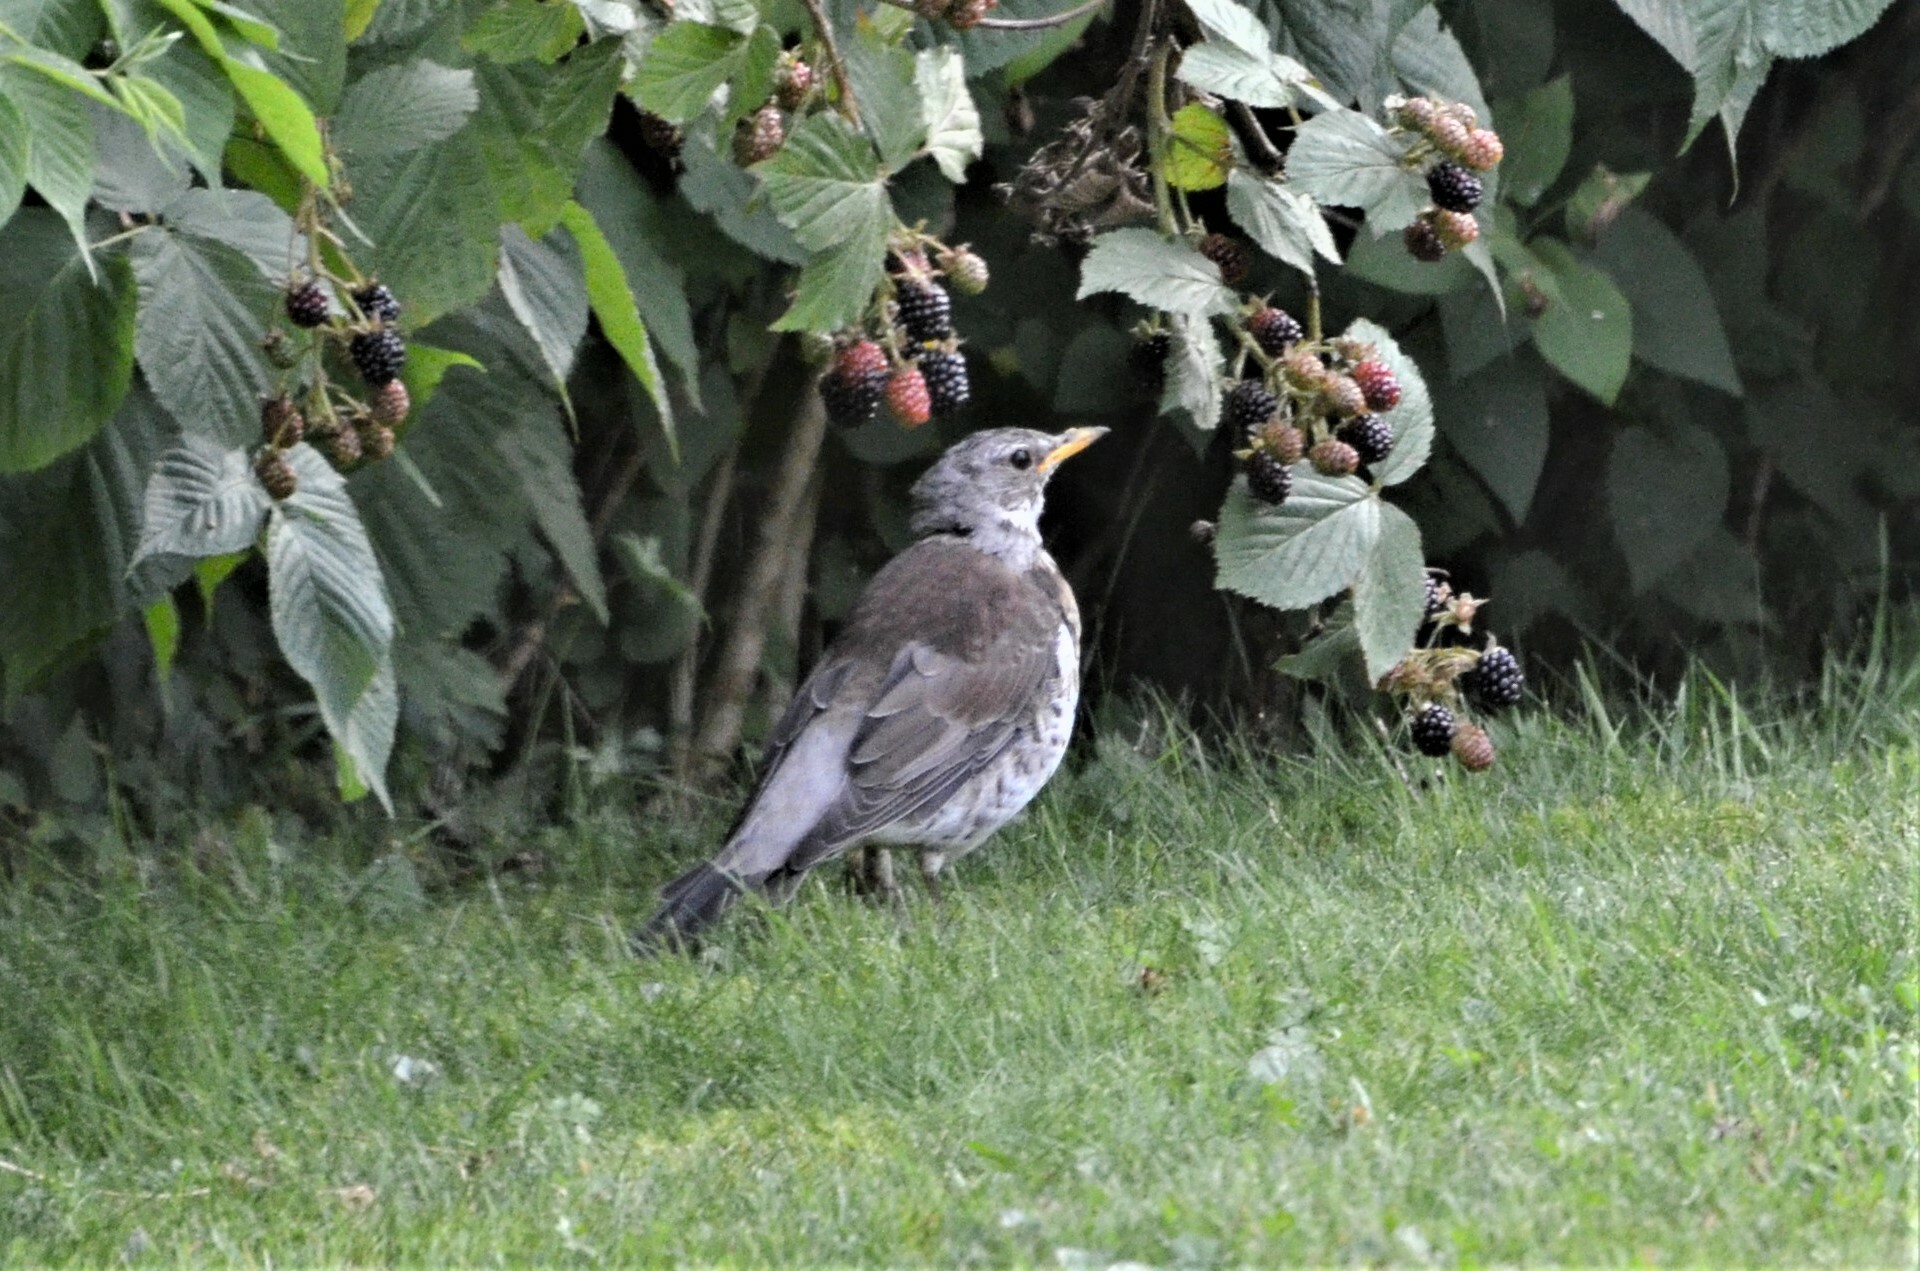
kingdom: Animalia
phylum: Chordata
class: Aves
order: Passeriformes
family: Turdidae
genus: Turdus
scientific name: Turdus pilaris
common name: Fieldfare
